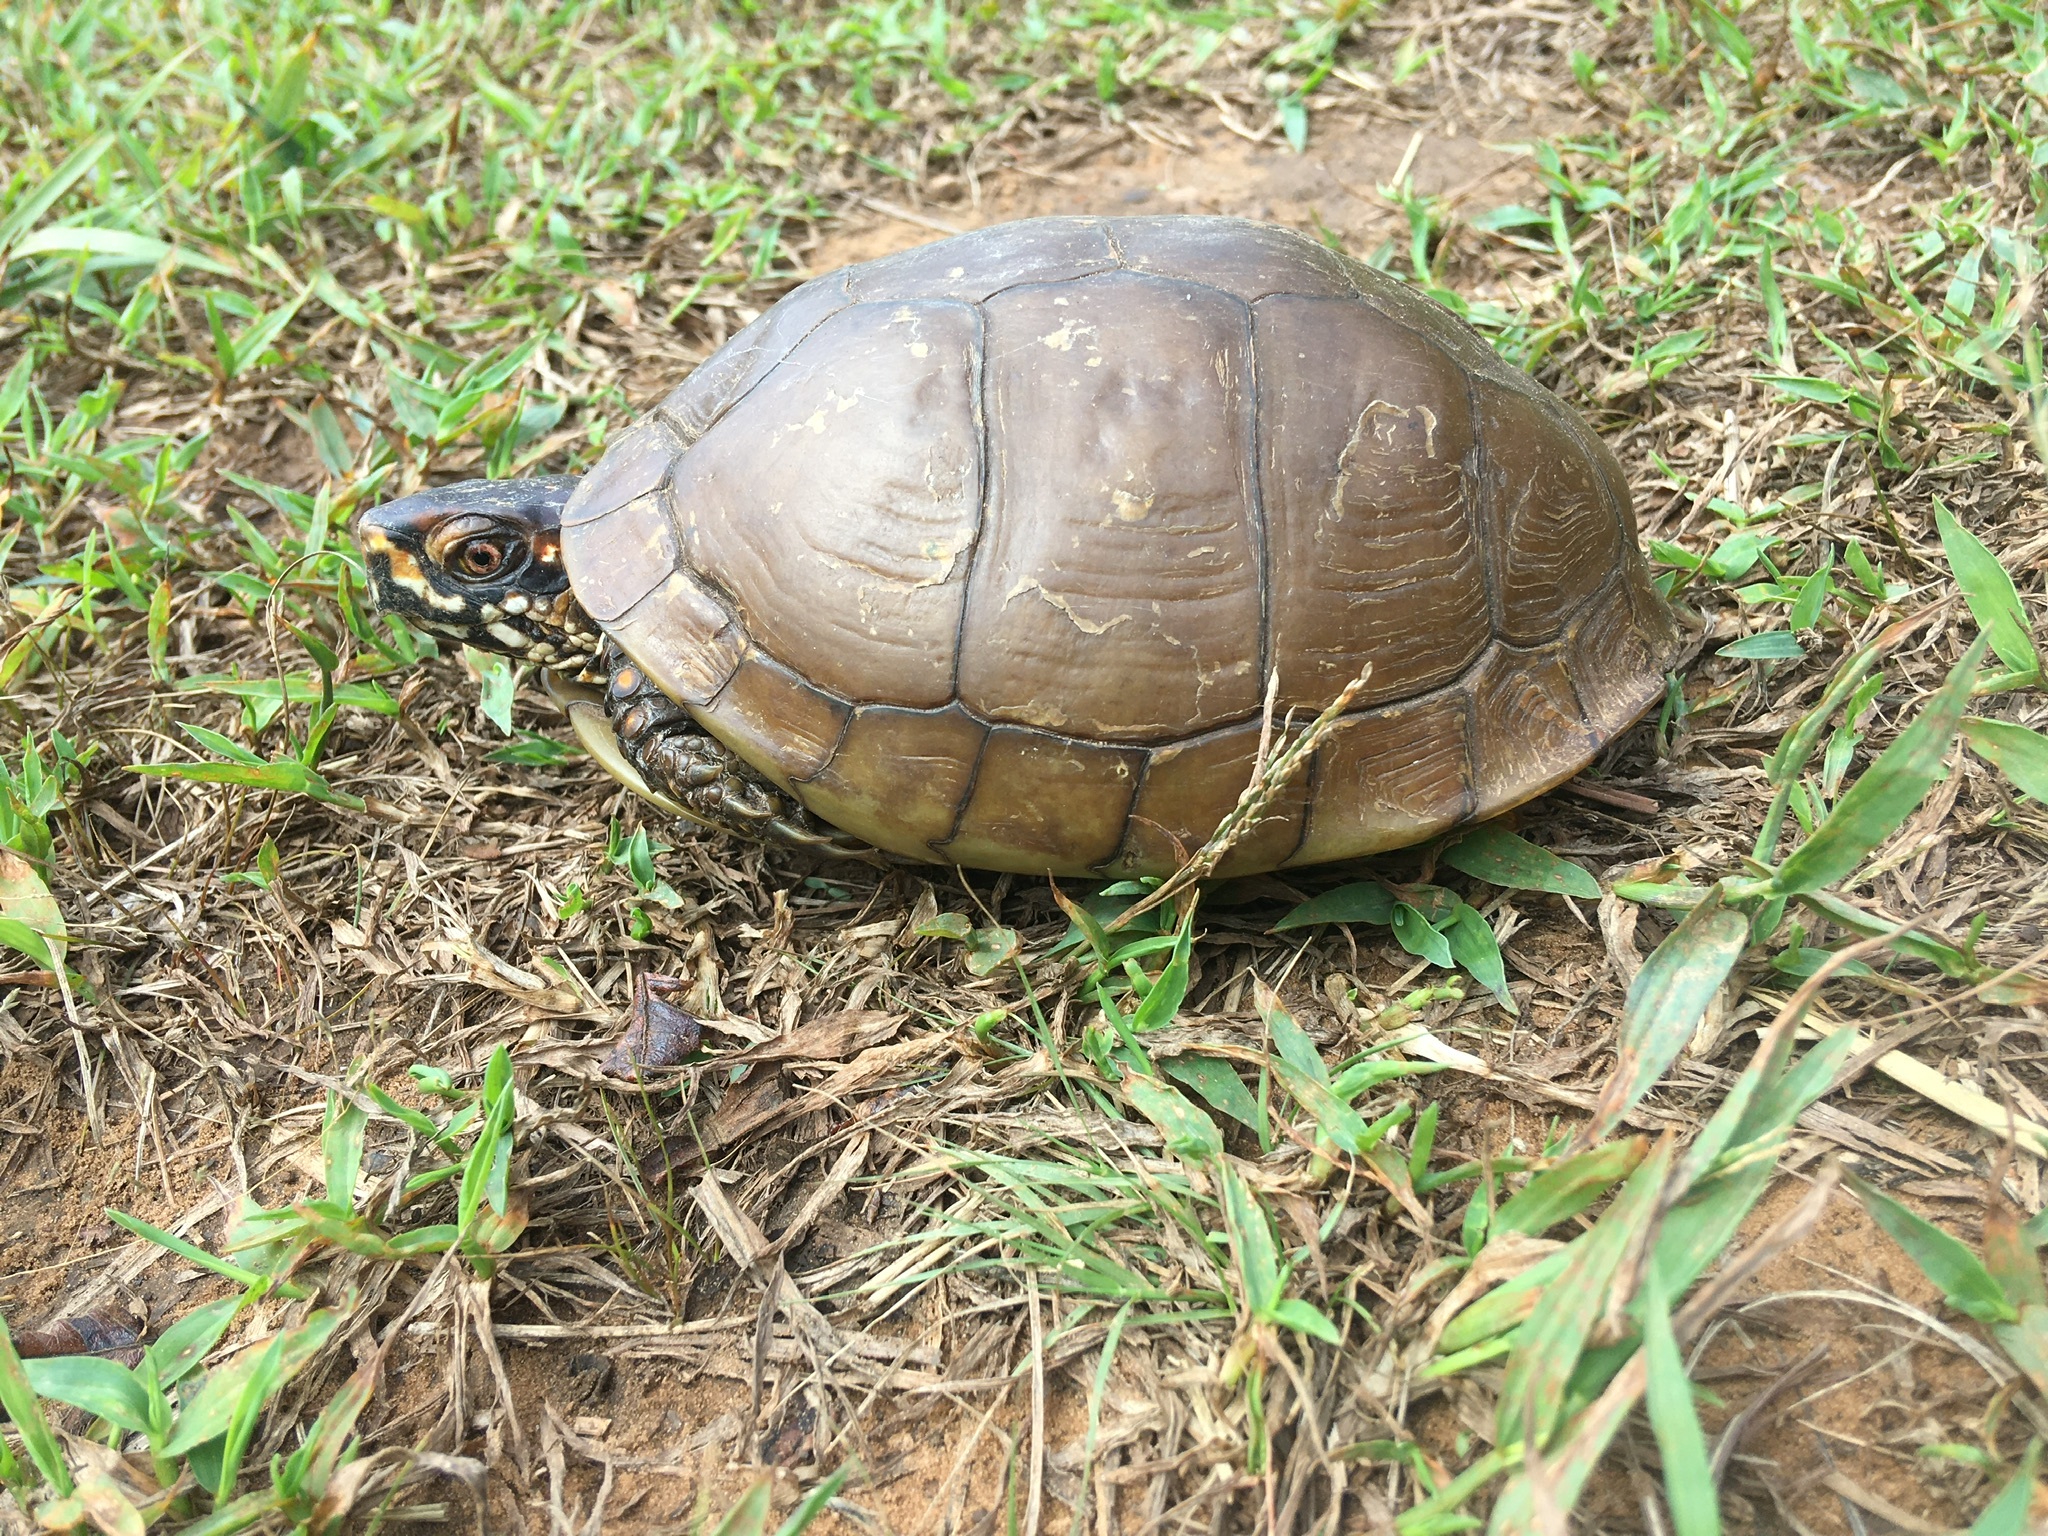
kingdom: Animalia
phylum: Chordata
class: Testudines
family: Emydidae
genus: Terrapene
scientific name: Terrapene carolina
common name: Common box turtle
